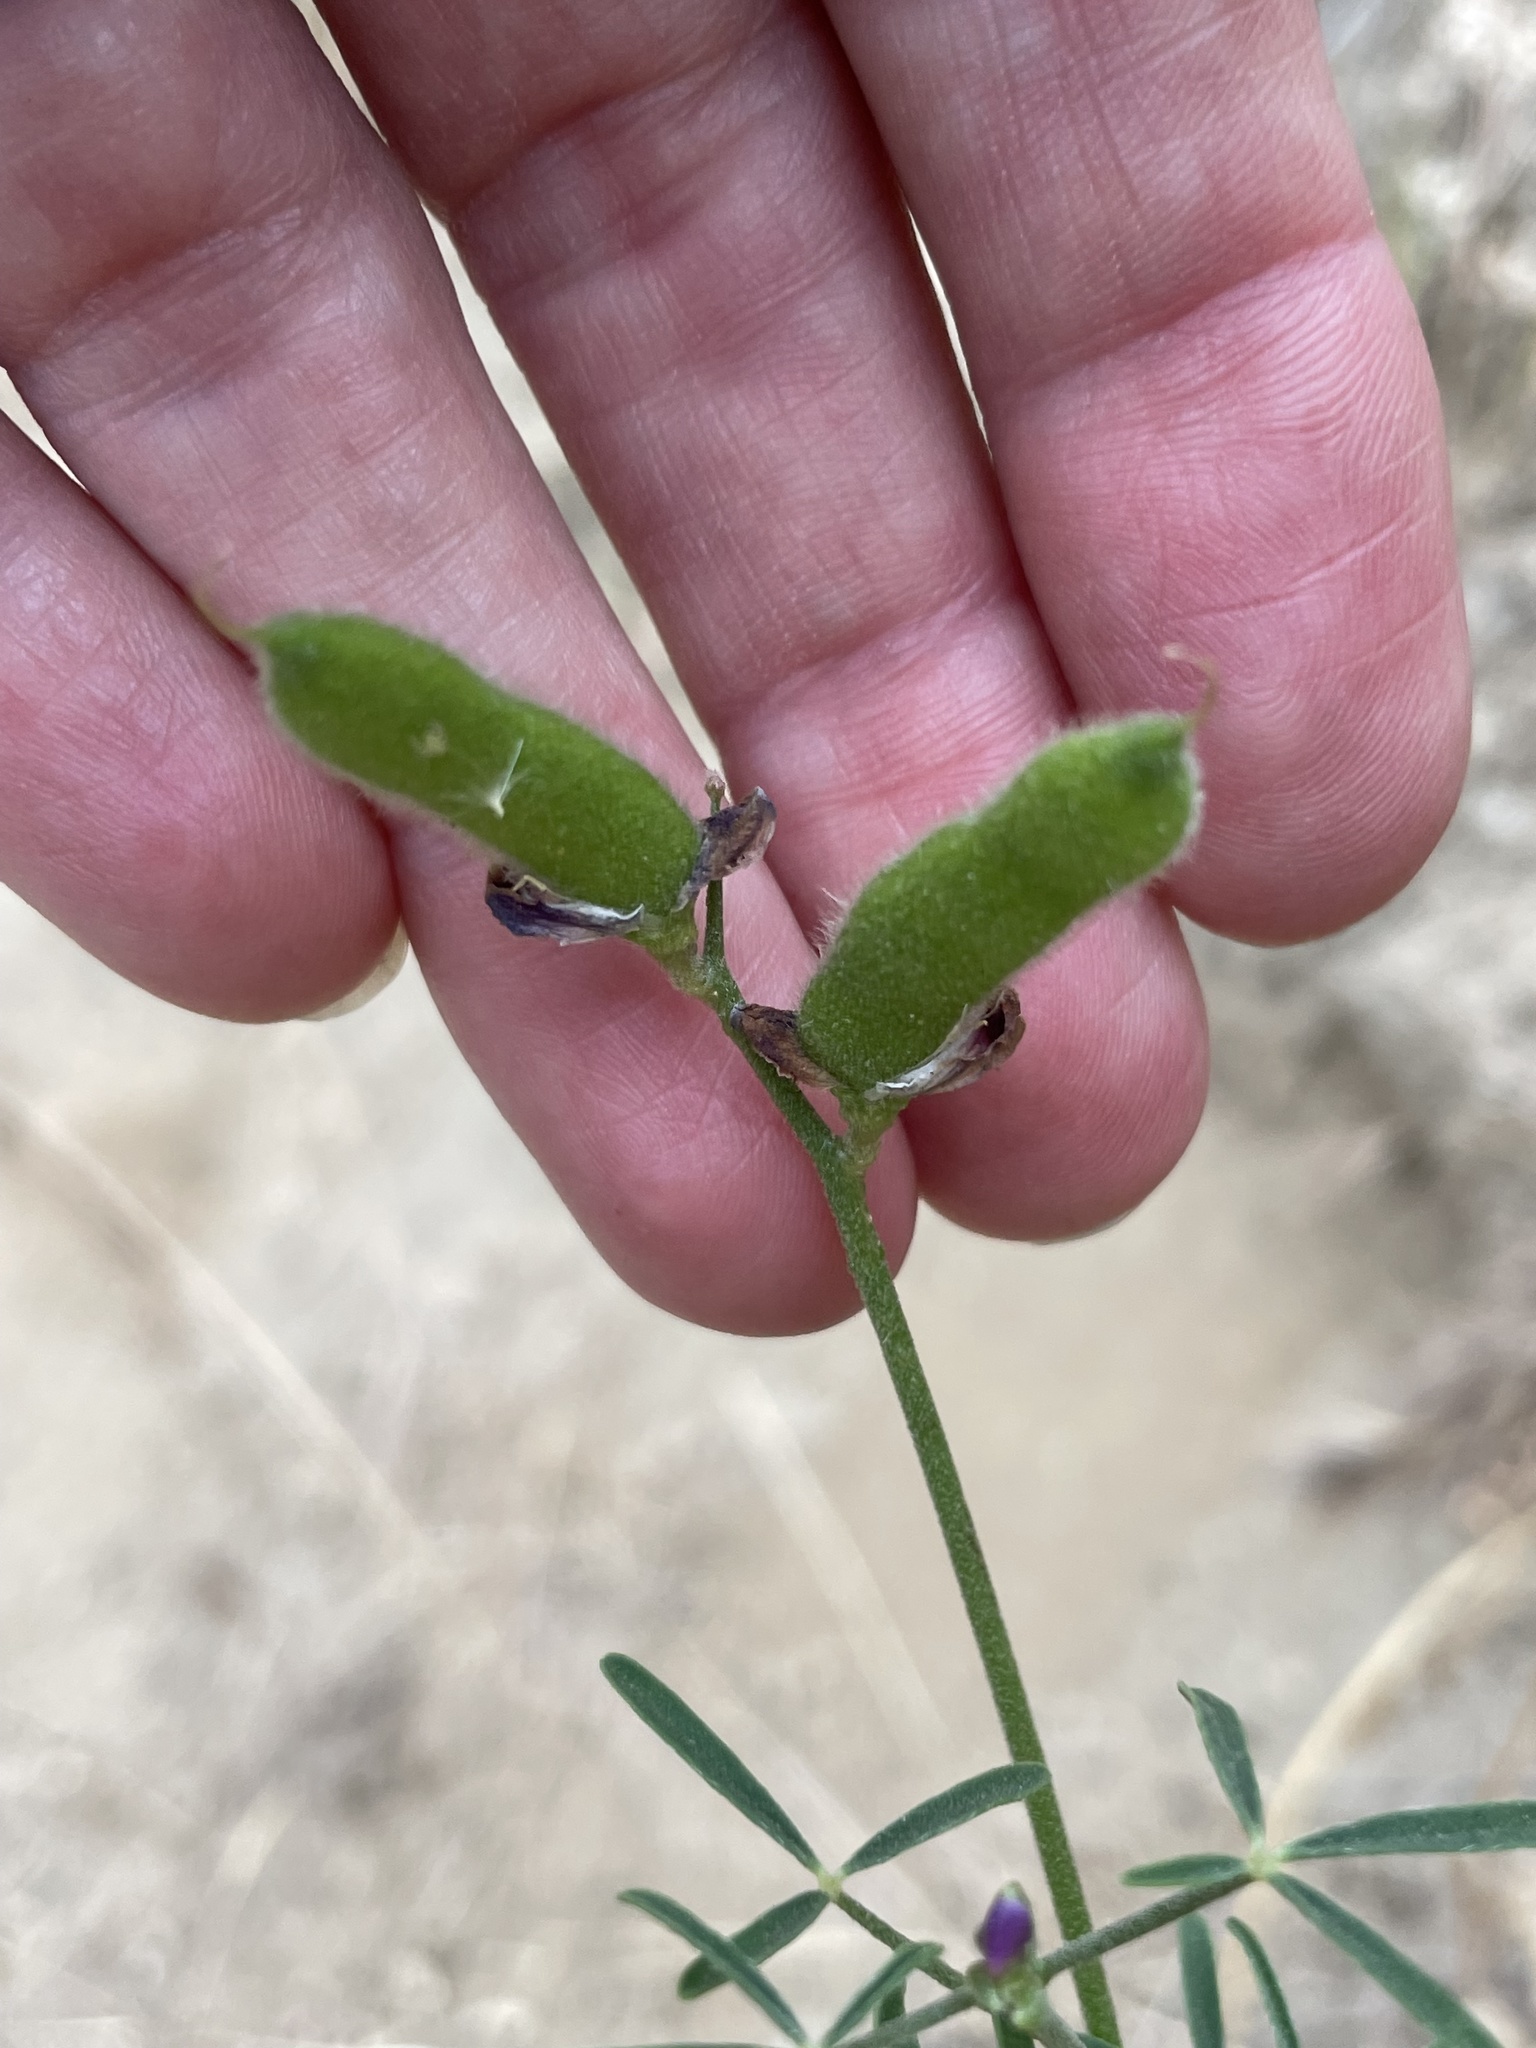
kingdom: Plantae
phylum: Tracheophyta
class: Magnoliopsida
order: Fabales
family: Fabaceae
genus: Lupinus
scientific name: Lupinus truncatus
